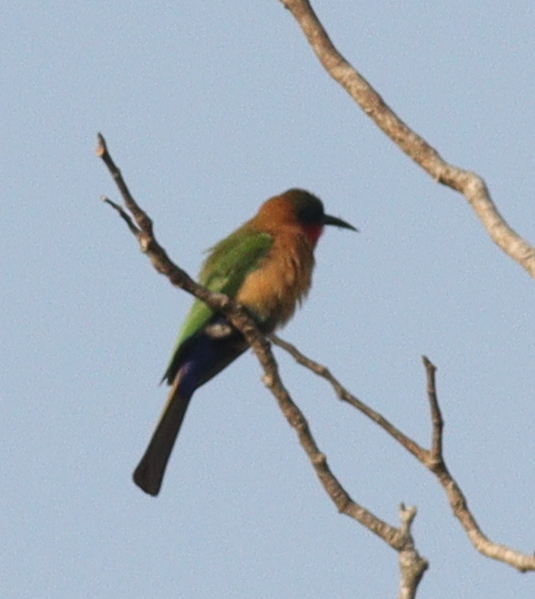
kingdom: Animalia
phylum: Chordata
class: Aves
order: Coraciiformes
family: Meropidae
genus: Merops
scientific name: Merops bulocki
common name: Red-throated bee-eater
